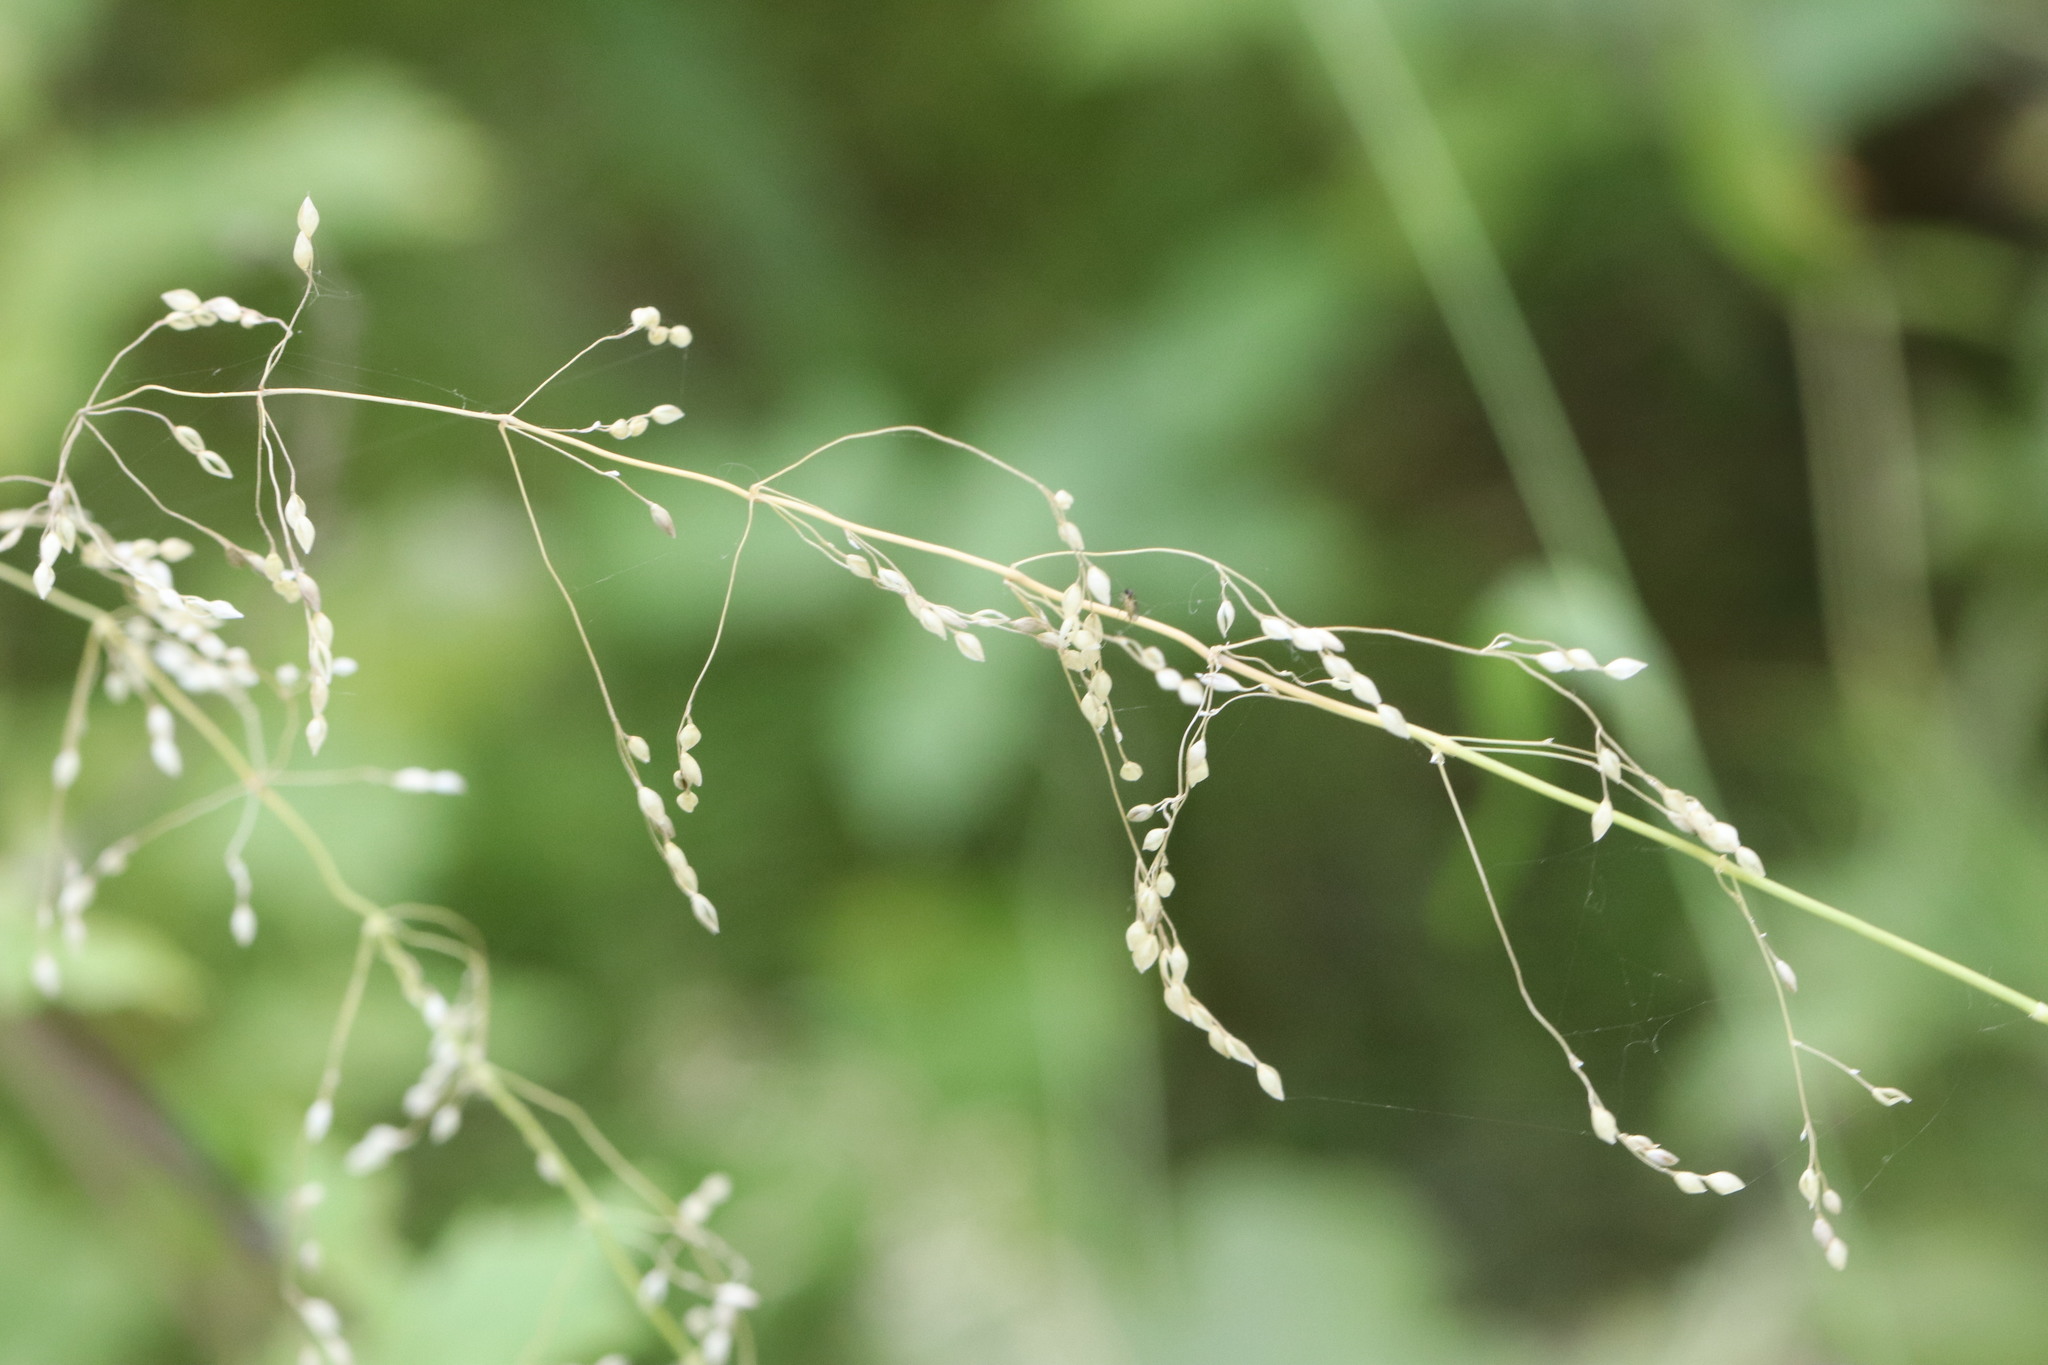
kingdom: Plantae
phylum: Tracheophyta
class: Liliopsida
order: Poales
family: Poaceae
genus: Milium
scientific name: Milium effusum
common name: Wood millet
